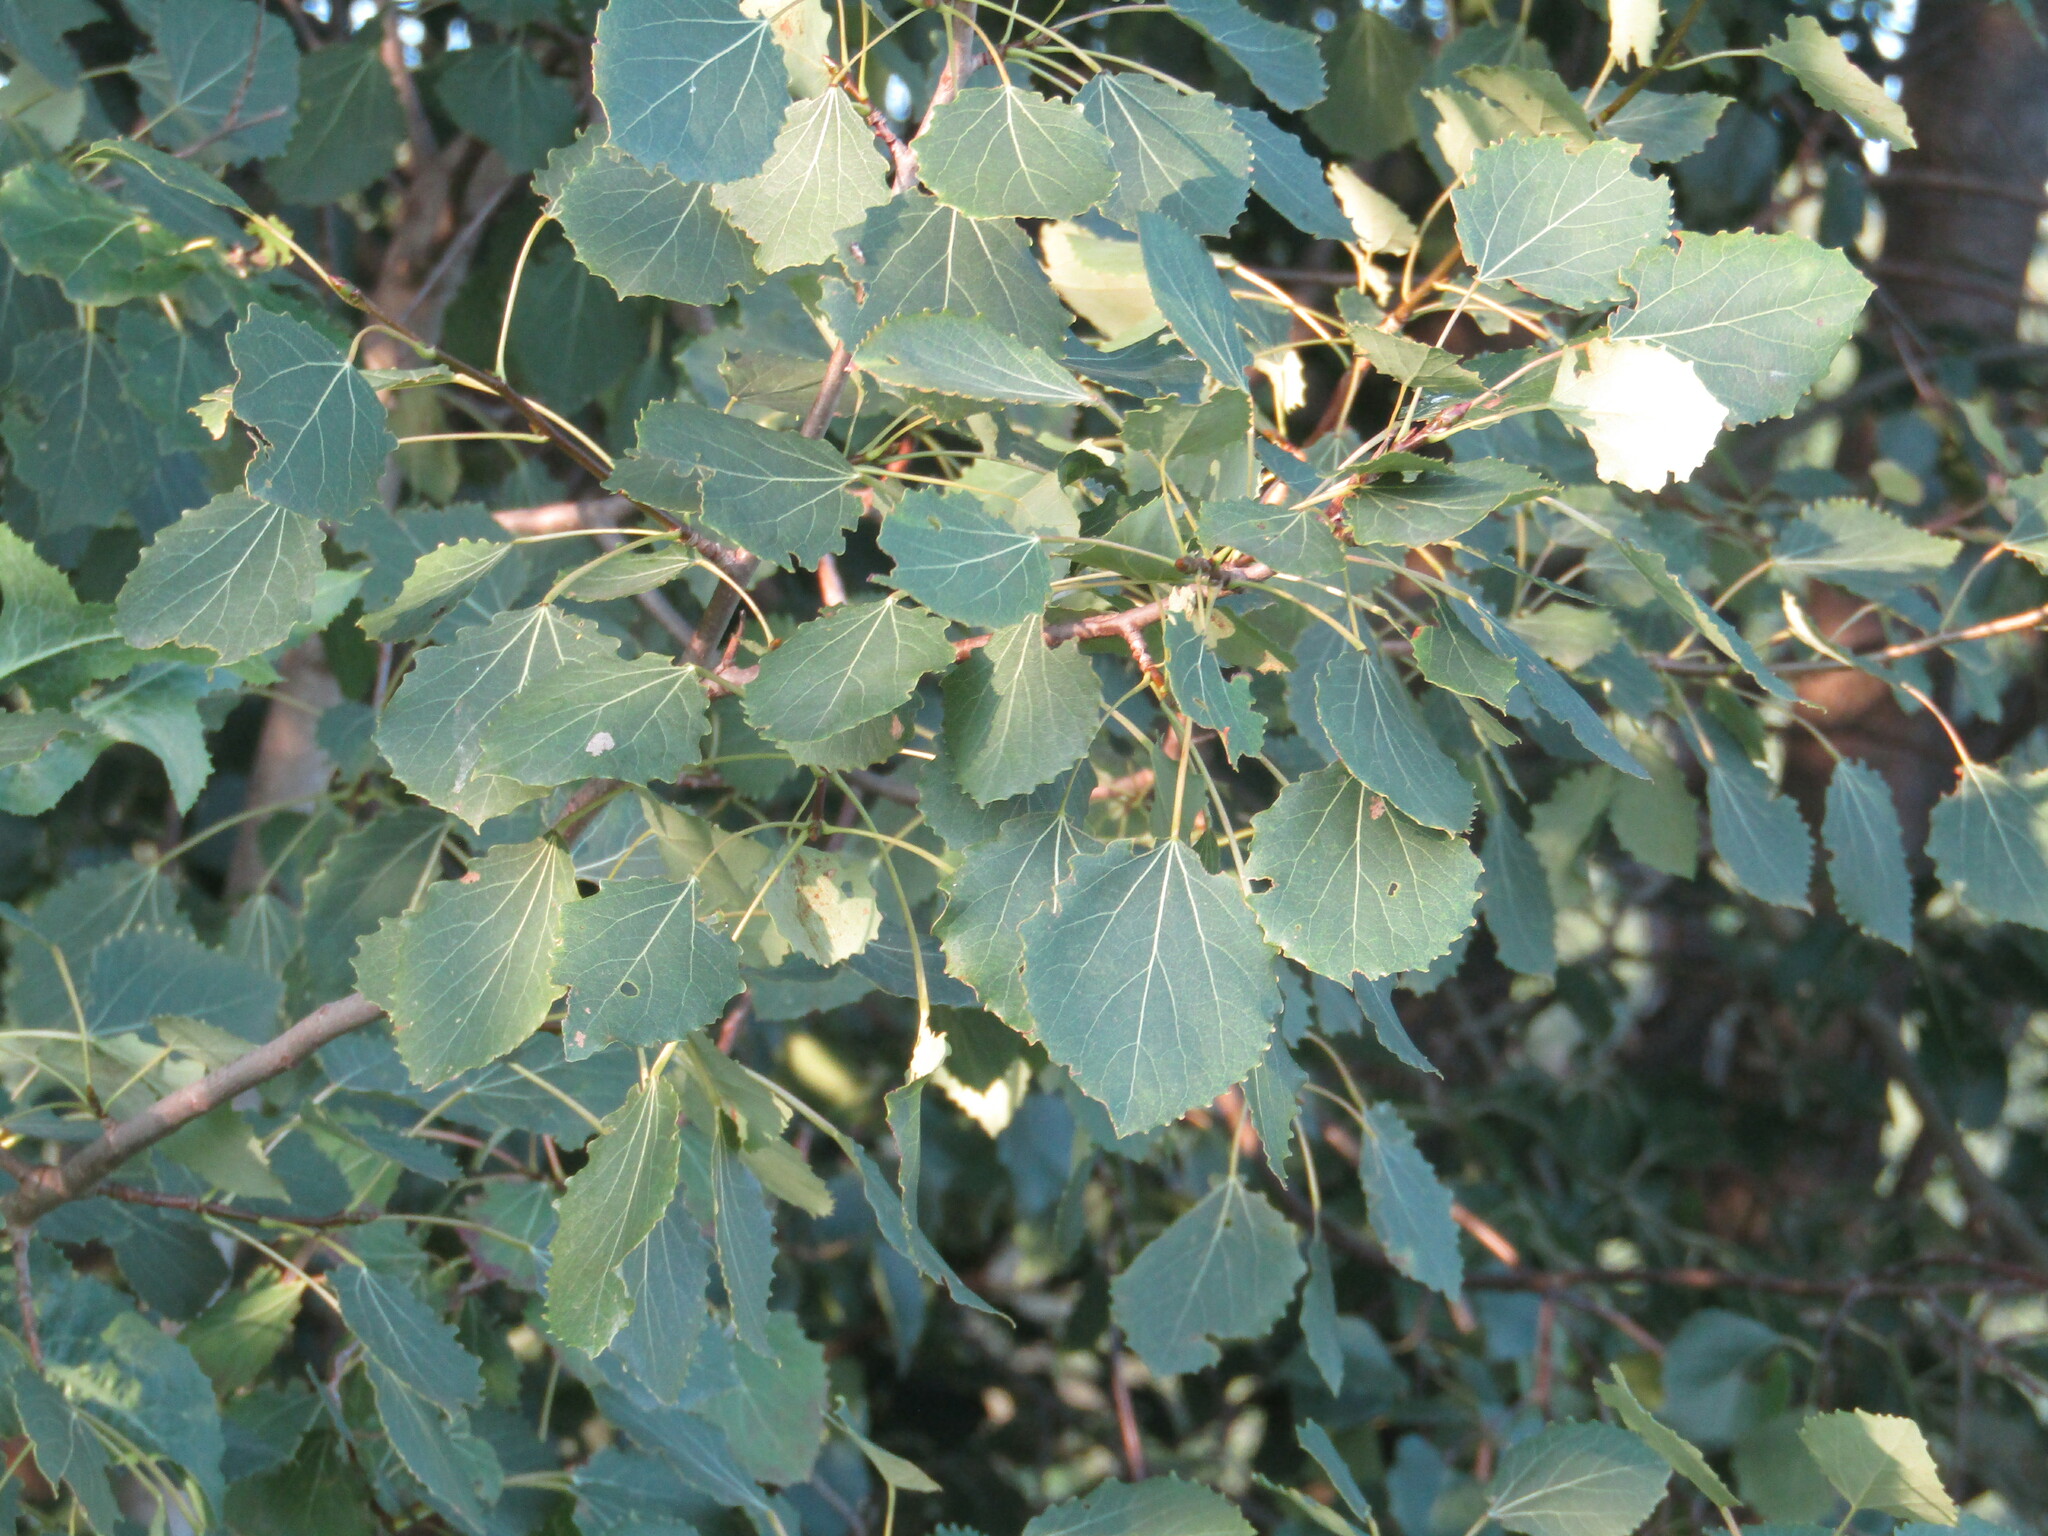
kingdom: Plantae
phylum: Tracheophyta
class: Magnoliopsida
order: Malpighiales
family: Salicaceae
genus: Populus
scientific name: Populus tremula
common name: European aspen
